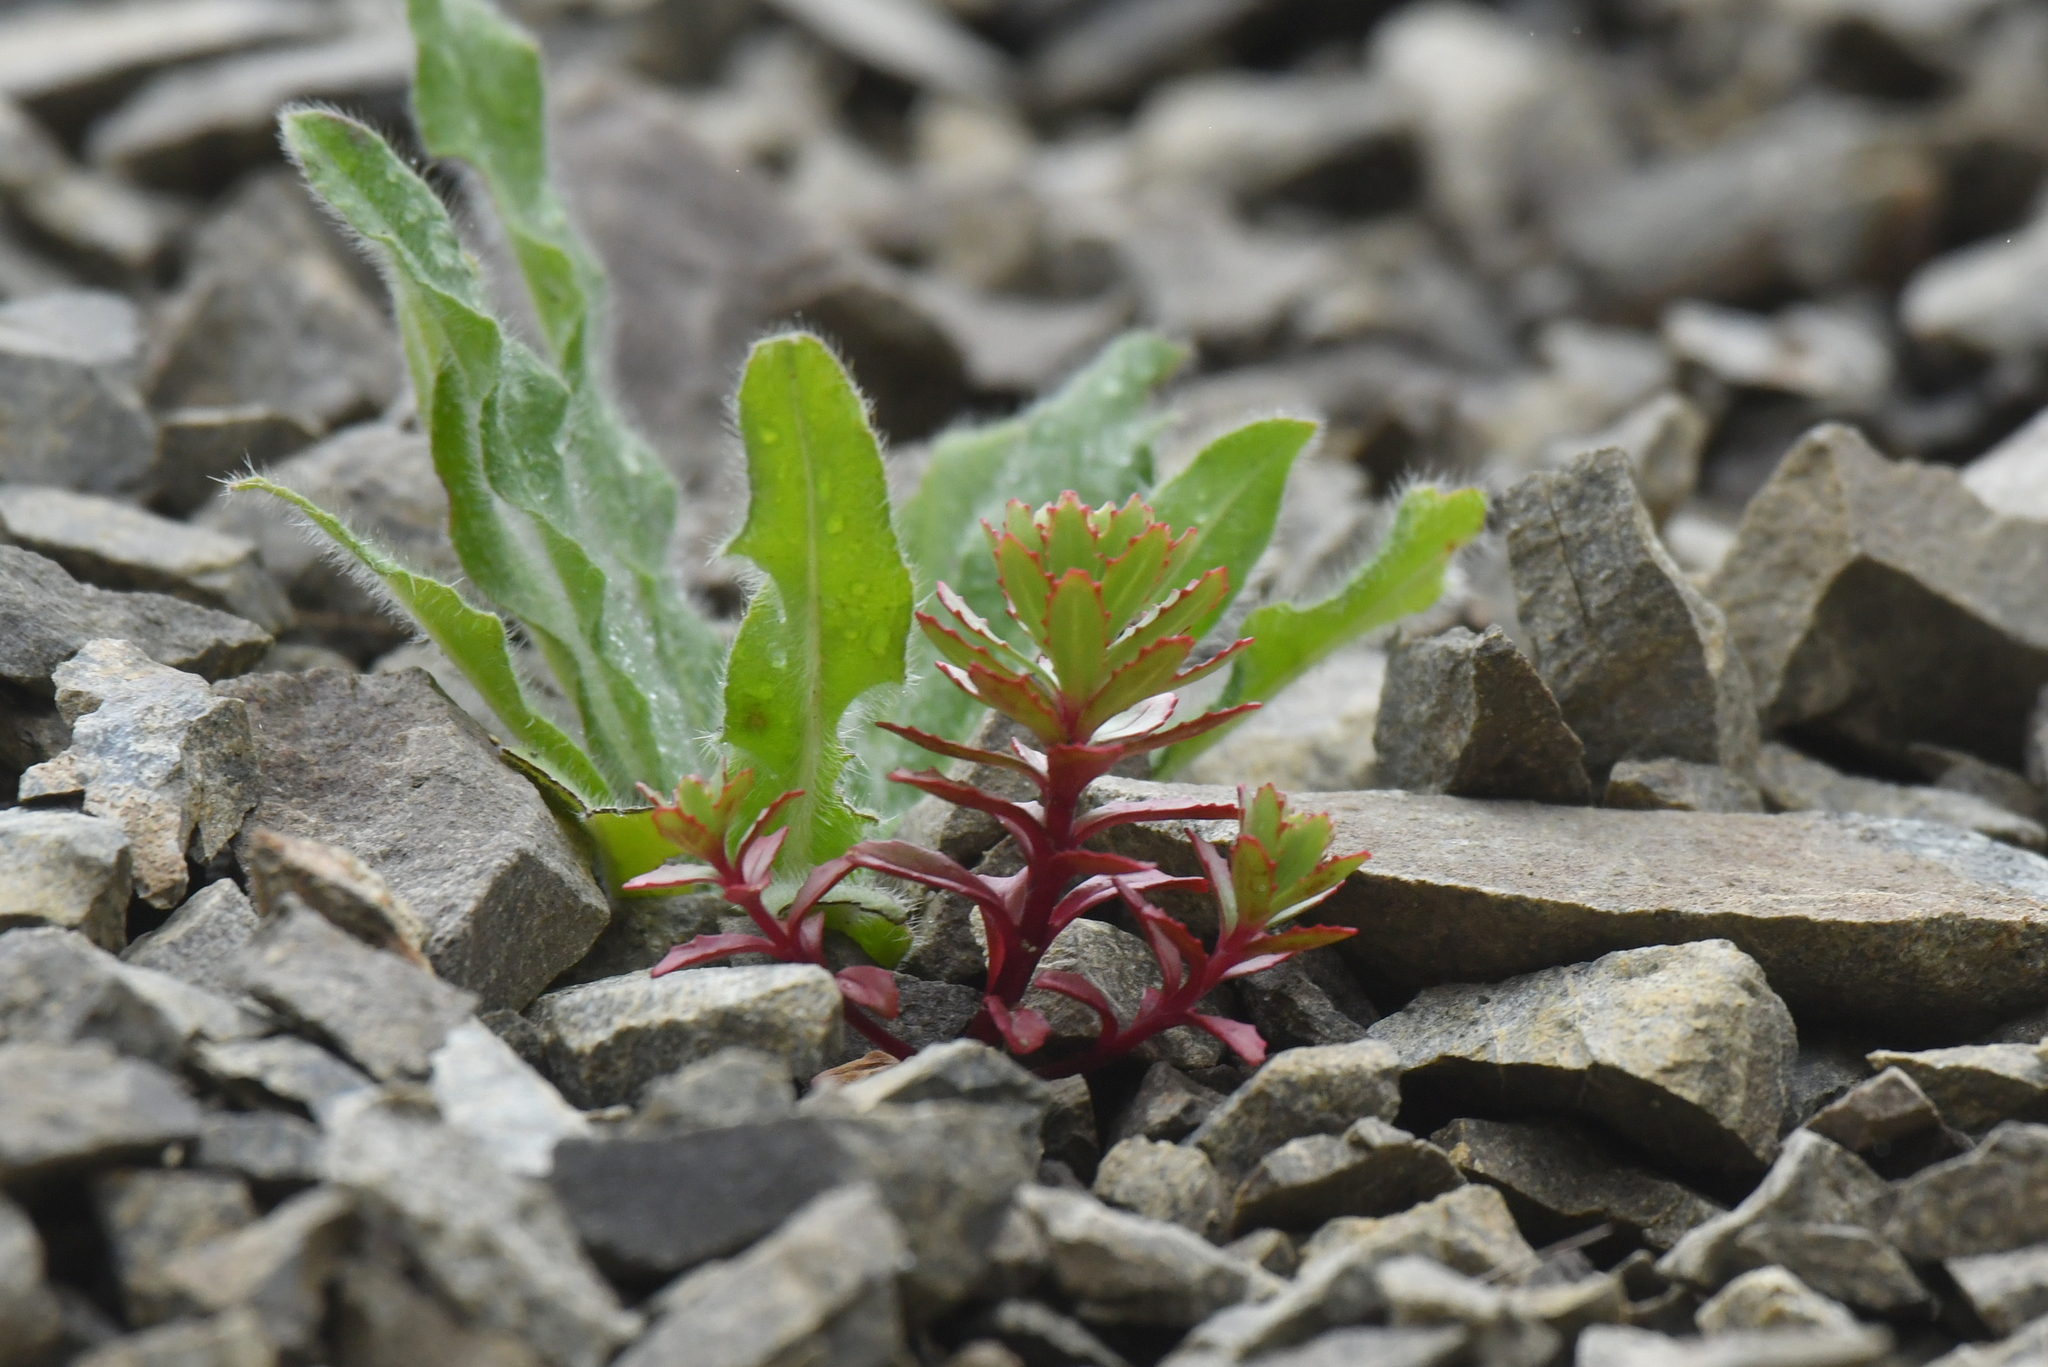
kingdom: Plantae
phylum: Tracheophyta
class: Magnoliopsida
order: Myrtales
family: Onagraceae
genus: Epilobium
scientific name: Epilobium pycnostachyum
